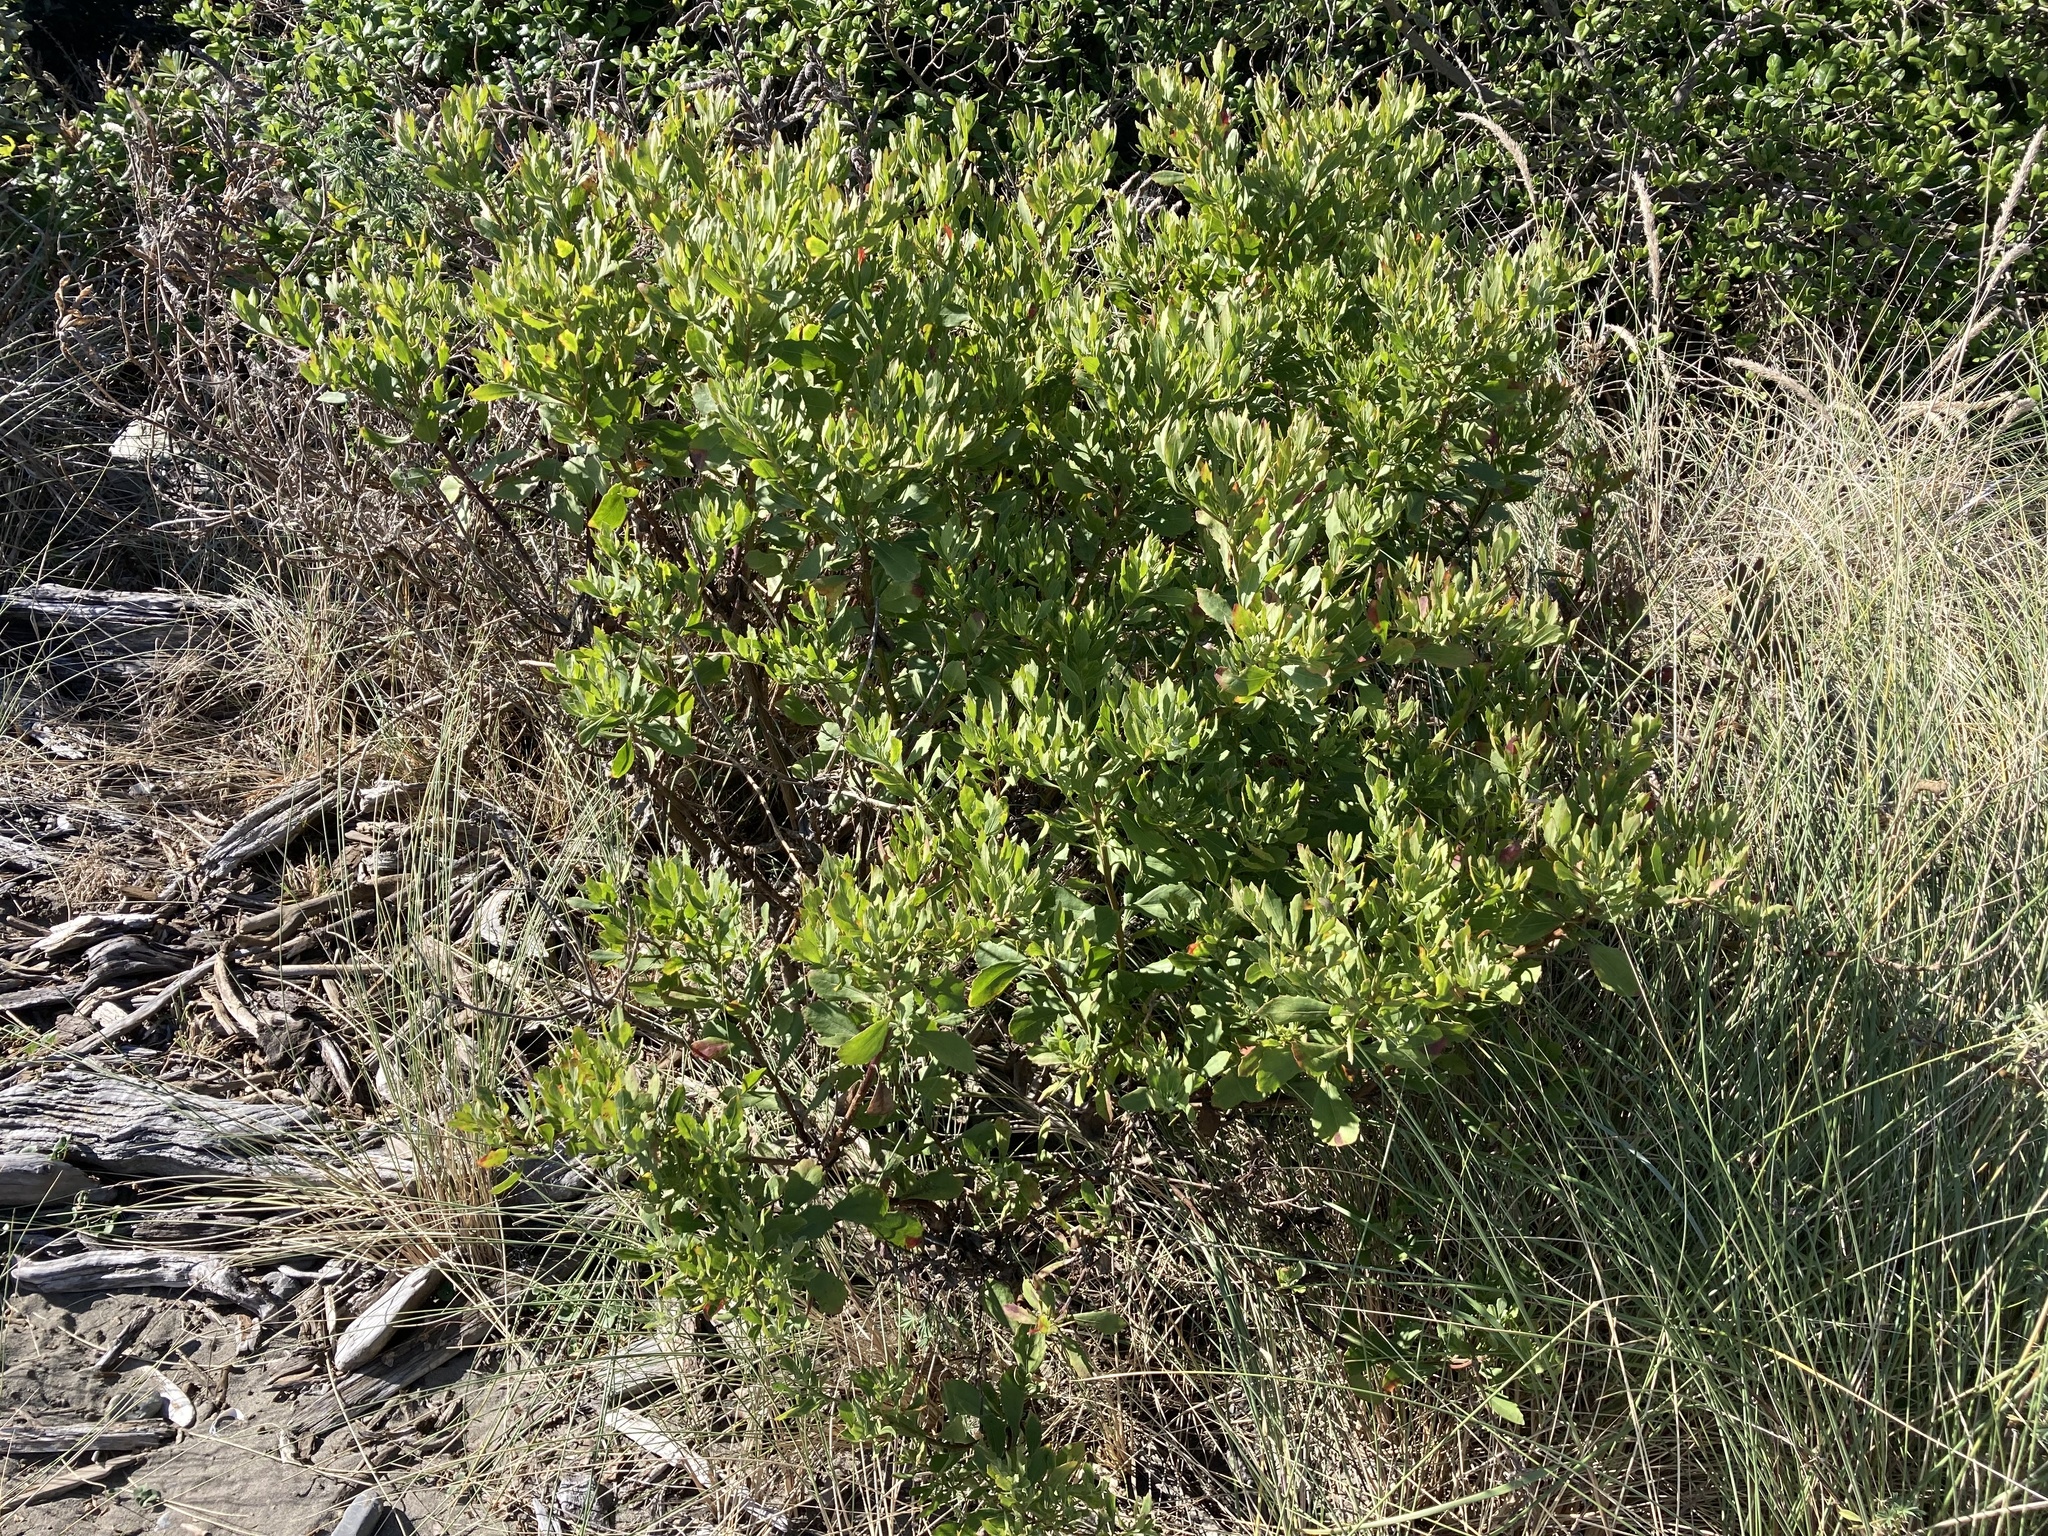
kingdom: Plantae
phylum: Tracheophyta
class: Magnoliopsida
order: Asterales
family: Asteraceae
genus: Osteospermum
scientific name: Osteospermum moniliferum
